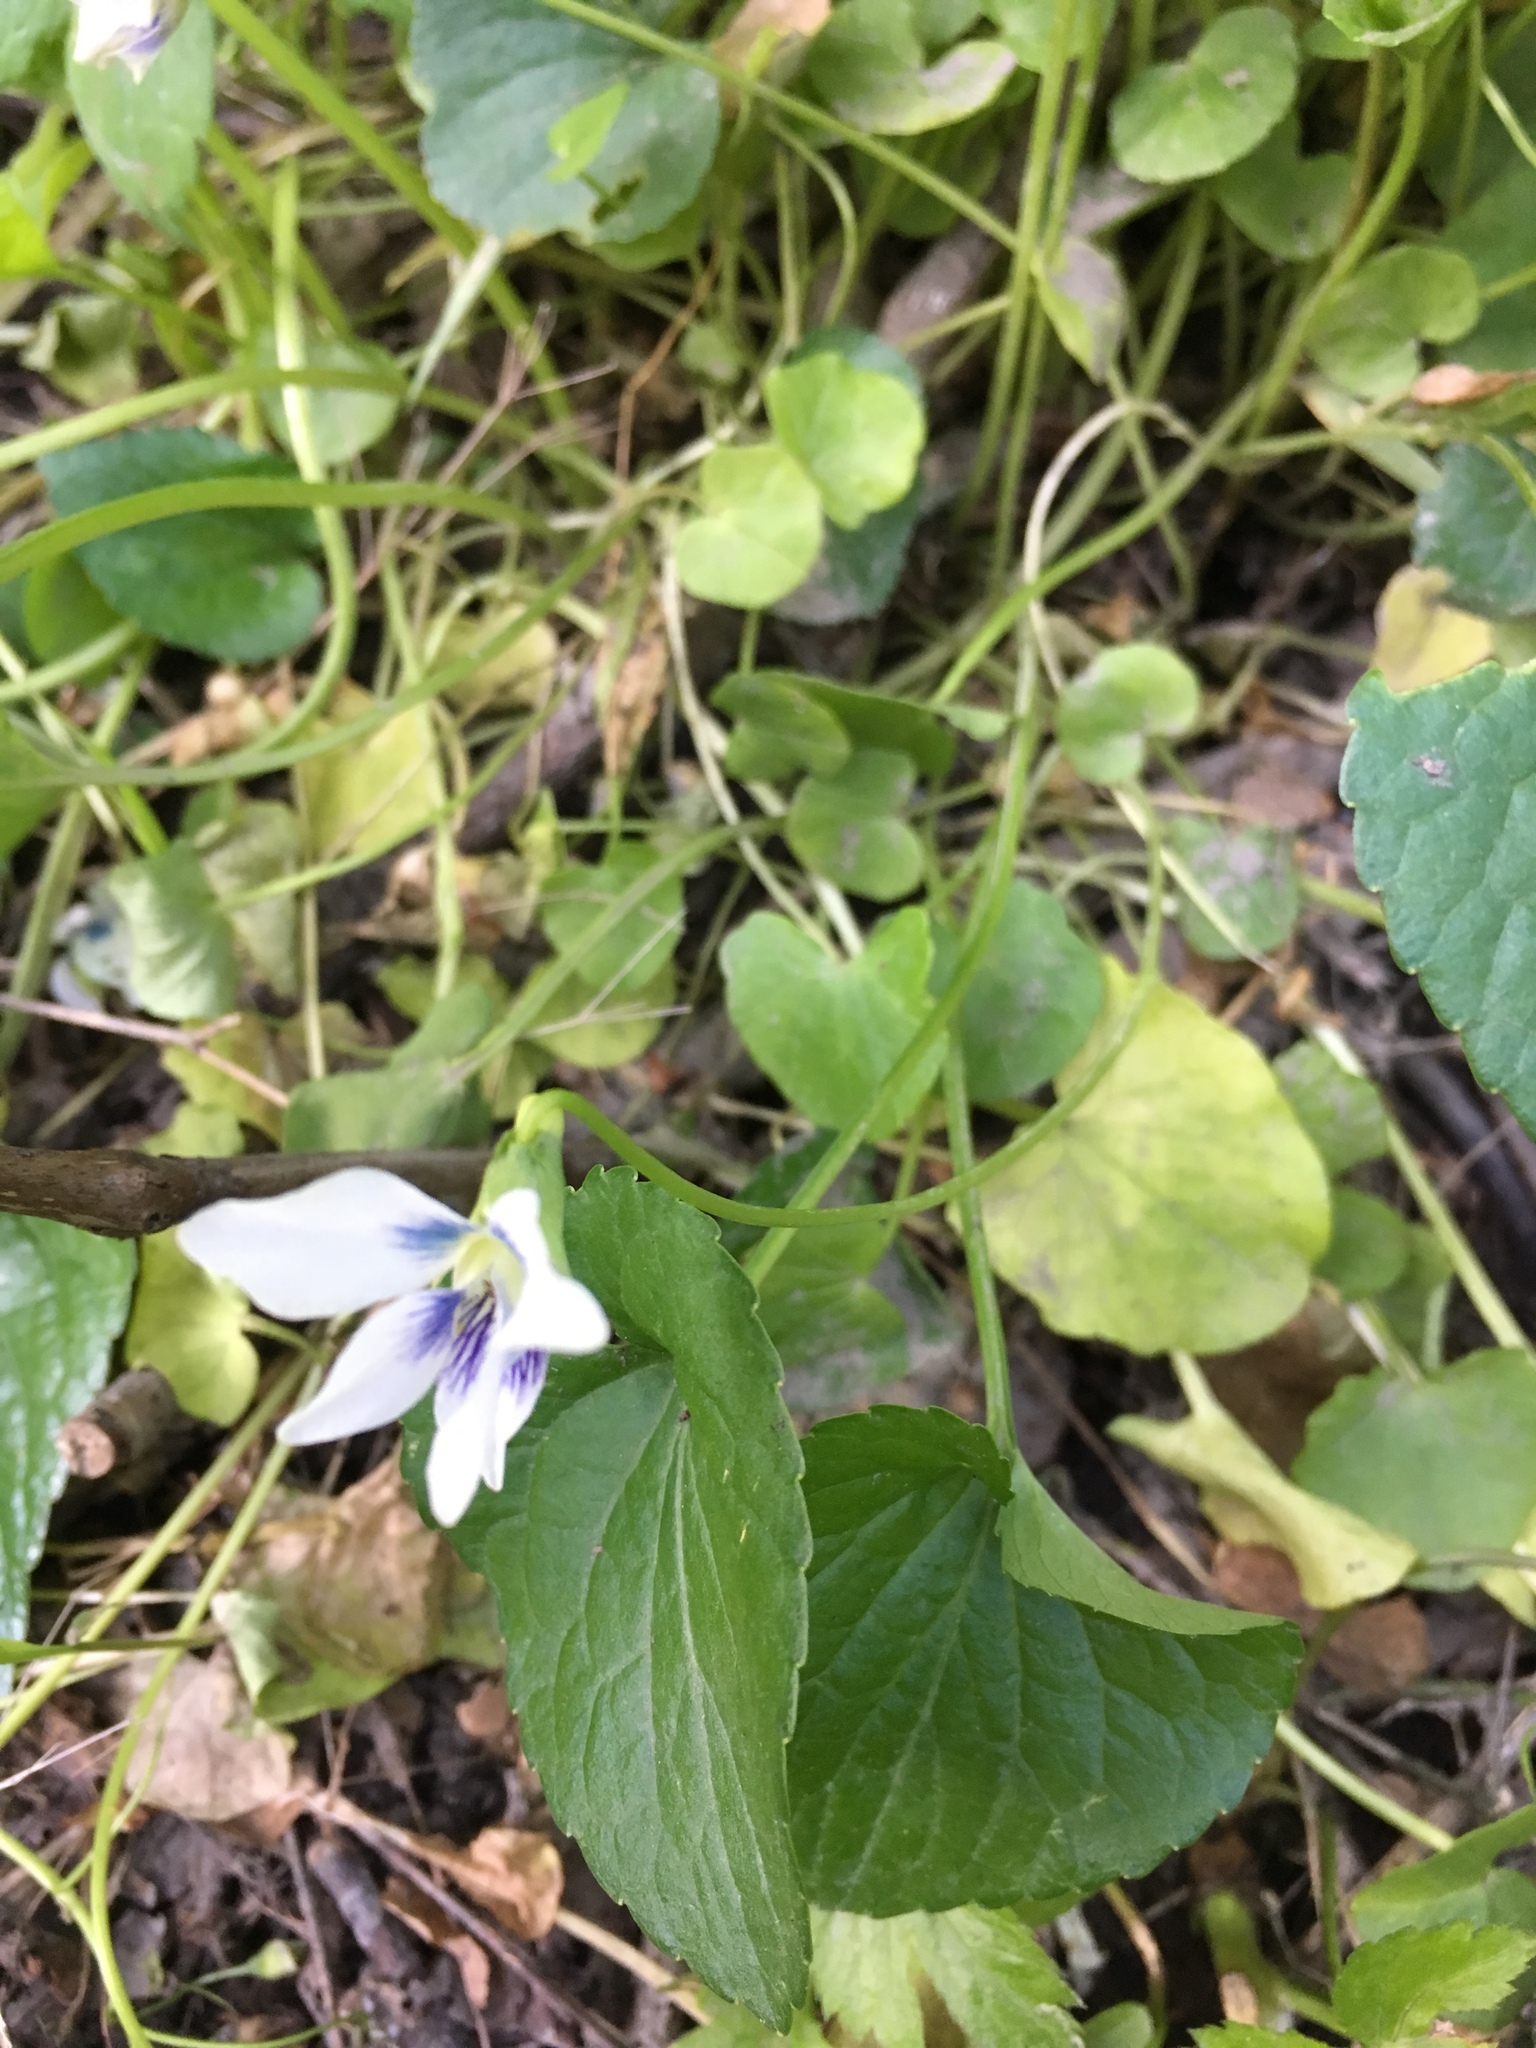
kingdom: Plantae
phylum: Tracheophyta
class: Magnoliopsida
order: Malpighiales
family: Violaceae
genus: Viola
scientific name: Viola sororia
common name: Dooryard violet
